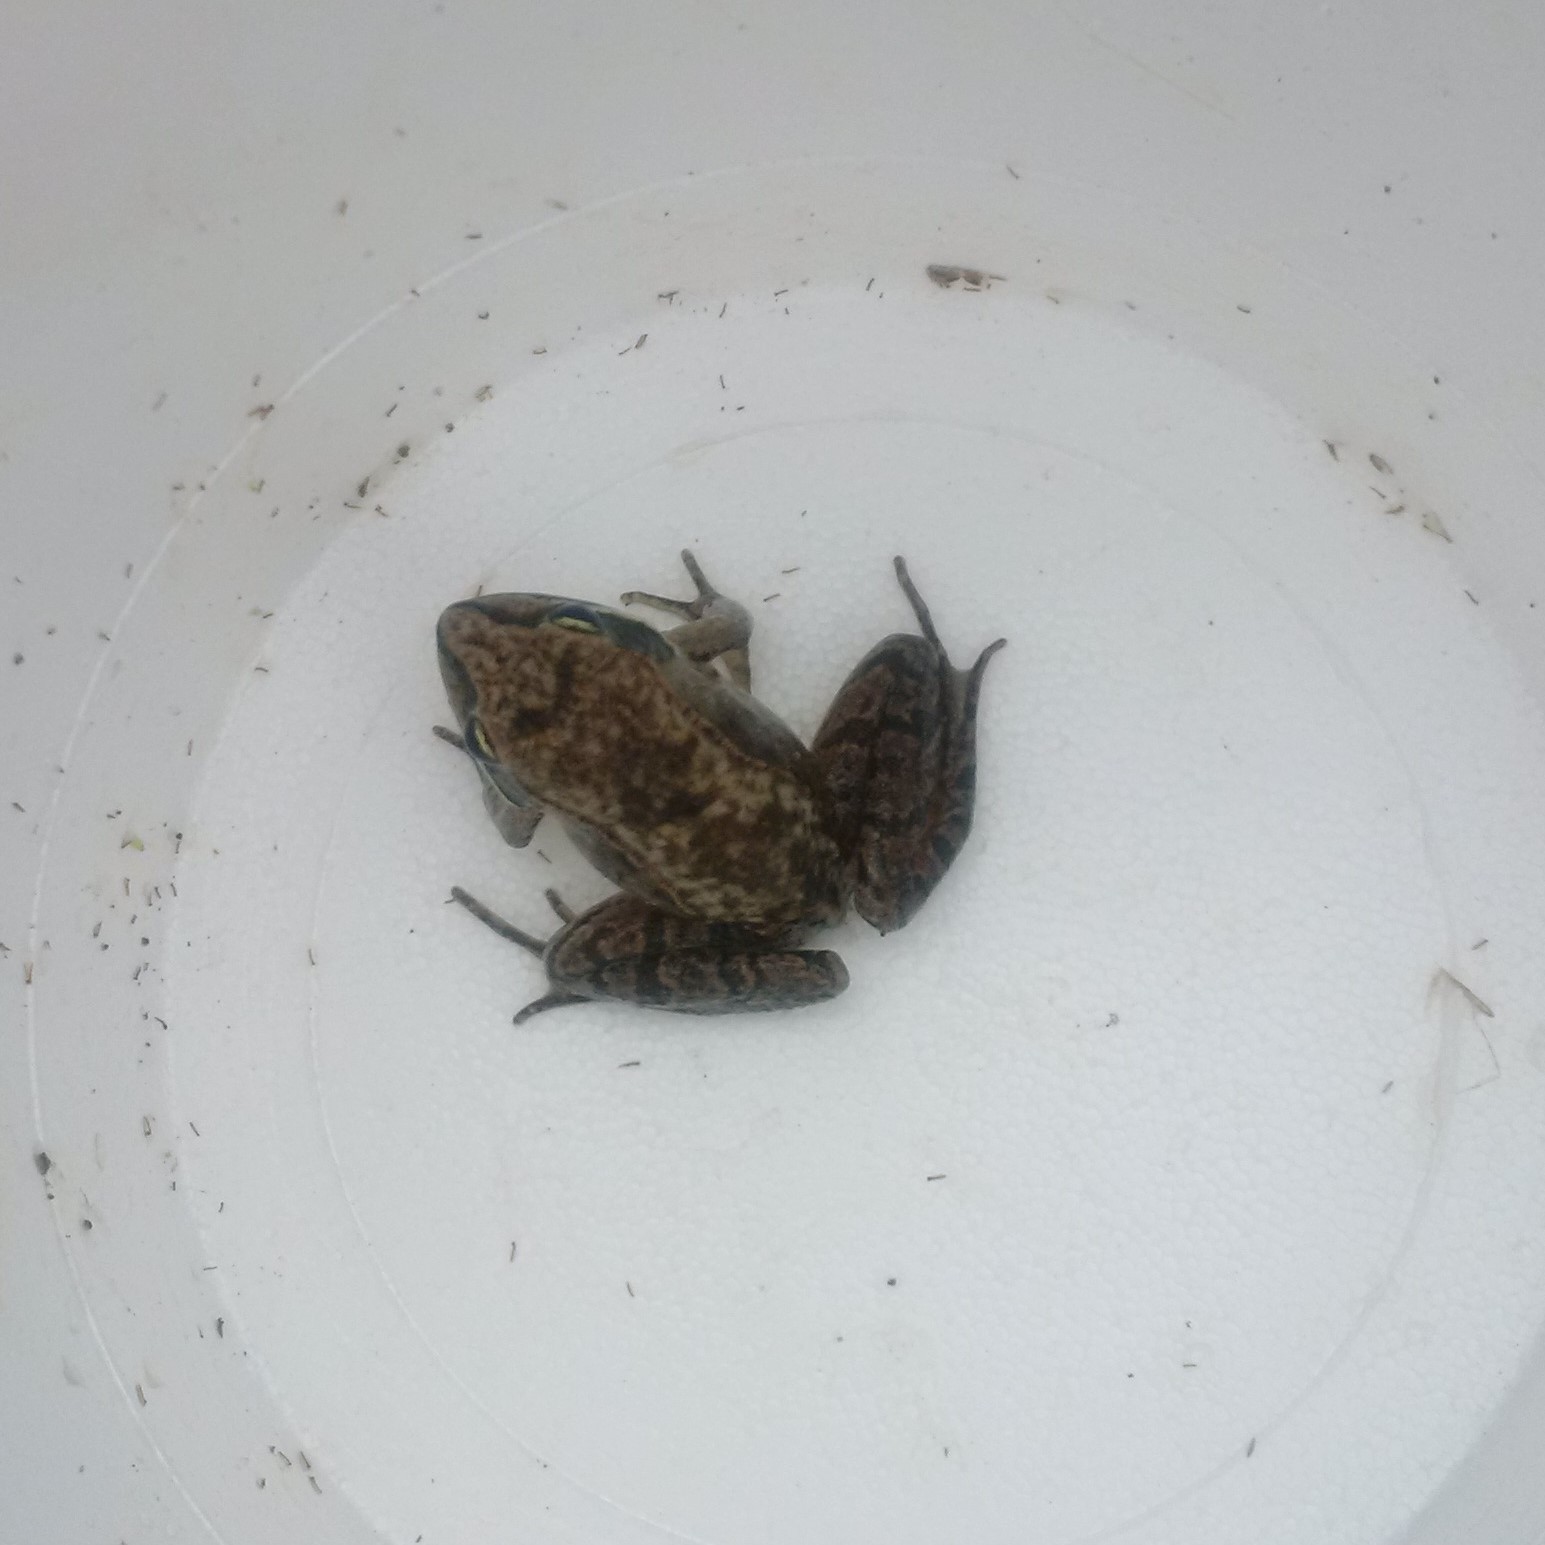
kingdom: Animalia
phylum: Chordata
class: Amphibia
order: Anura
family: Ranidae
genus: Lithobates
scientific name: Lithobates sylvaticus
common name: Wood frog
